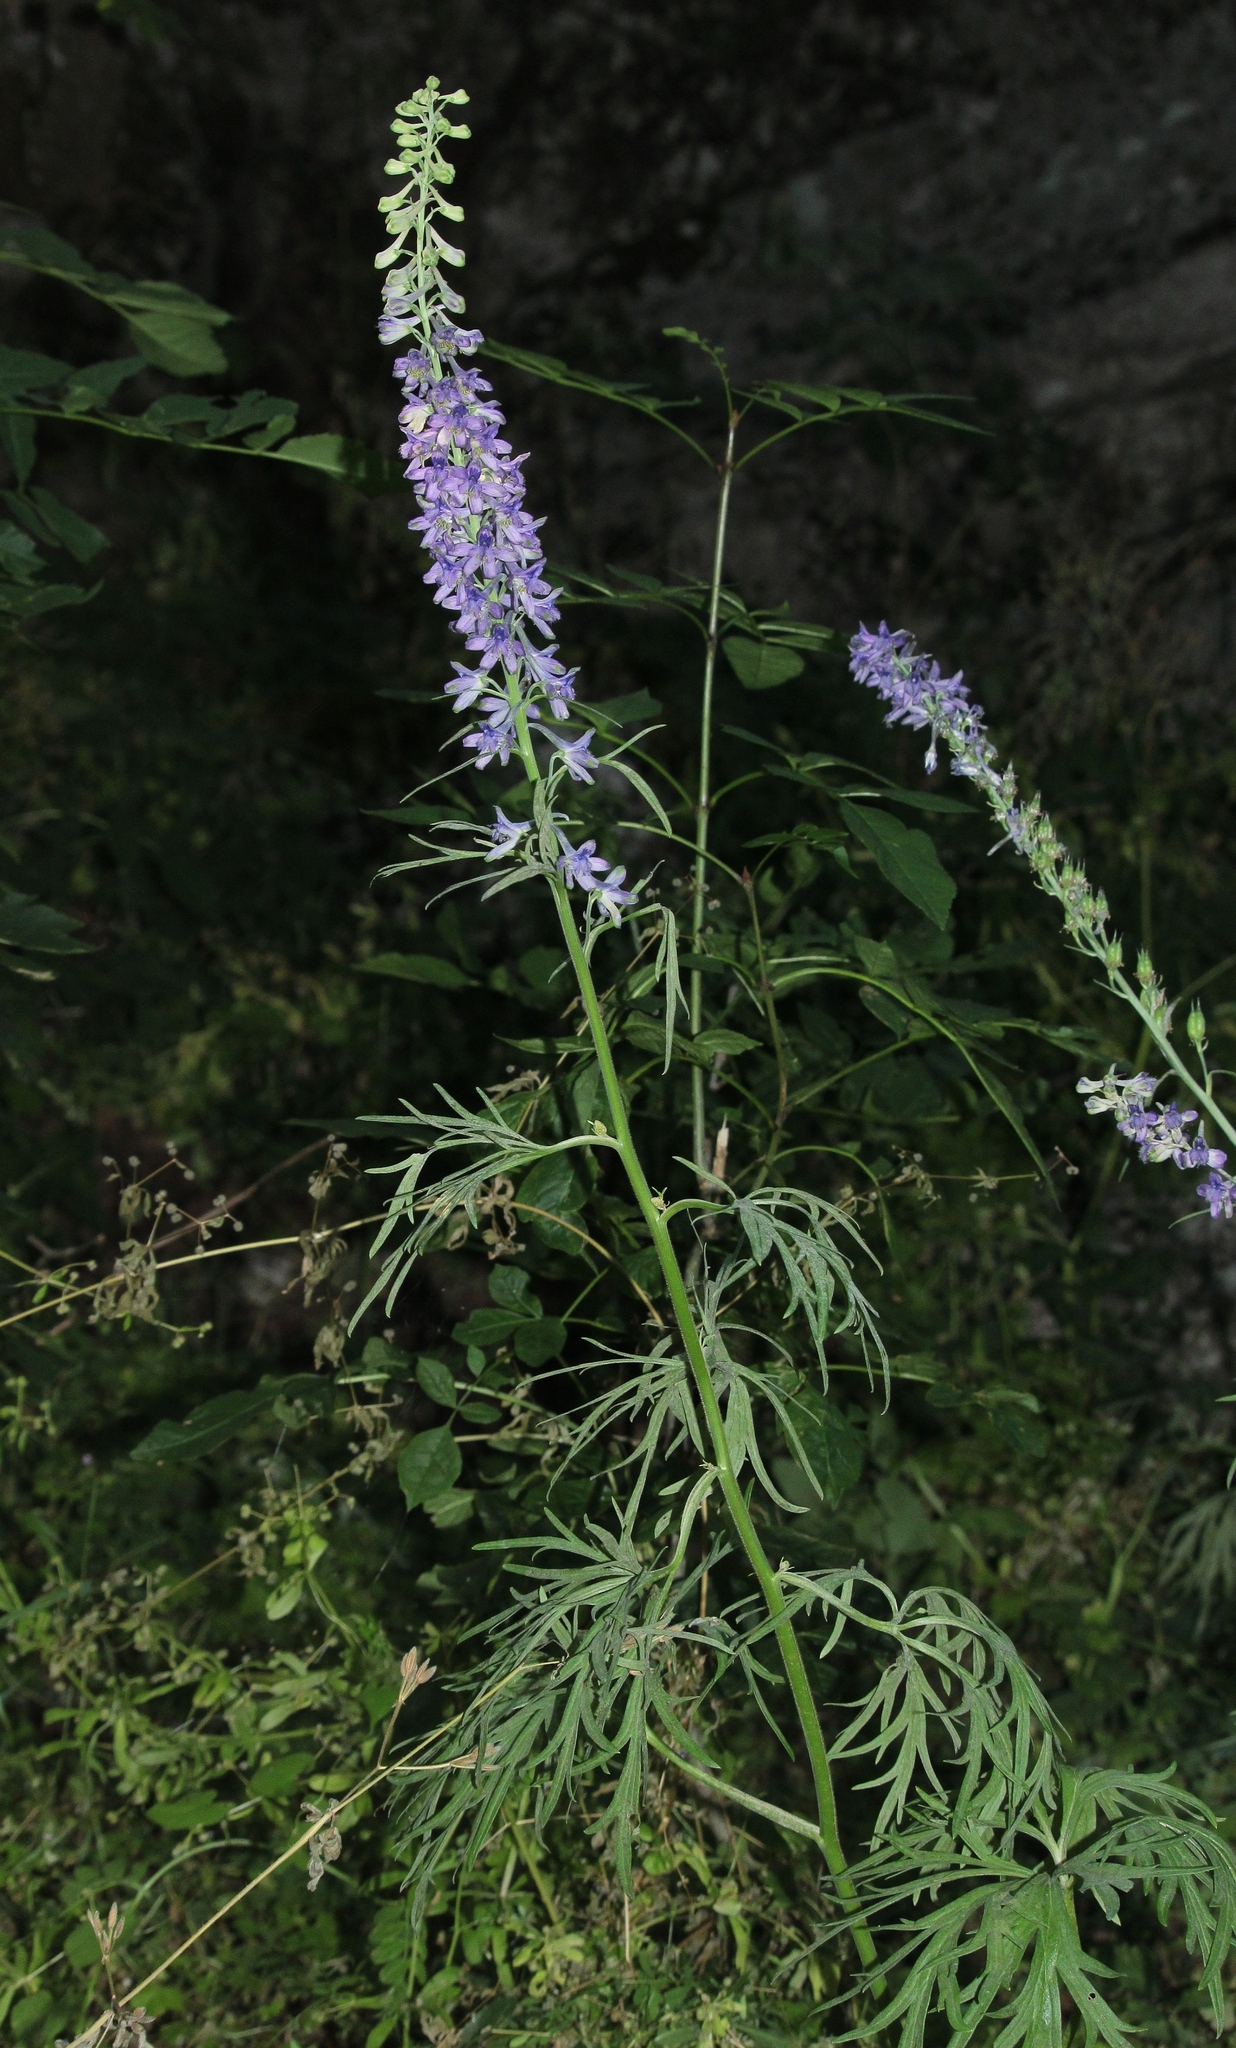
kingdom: Plantae
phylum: Tracheophyta
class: Magnoliopsida
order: Ranunculales
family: Ranunculaceae
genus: Delphinium
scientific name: Delphinium fissum
